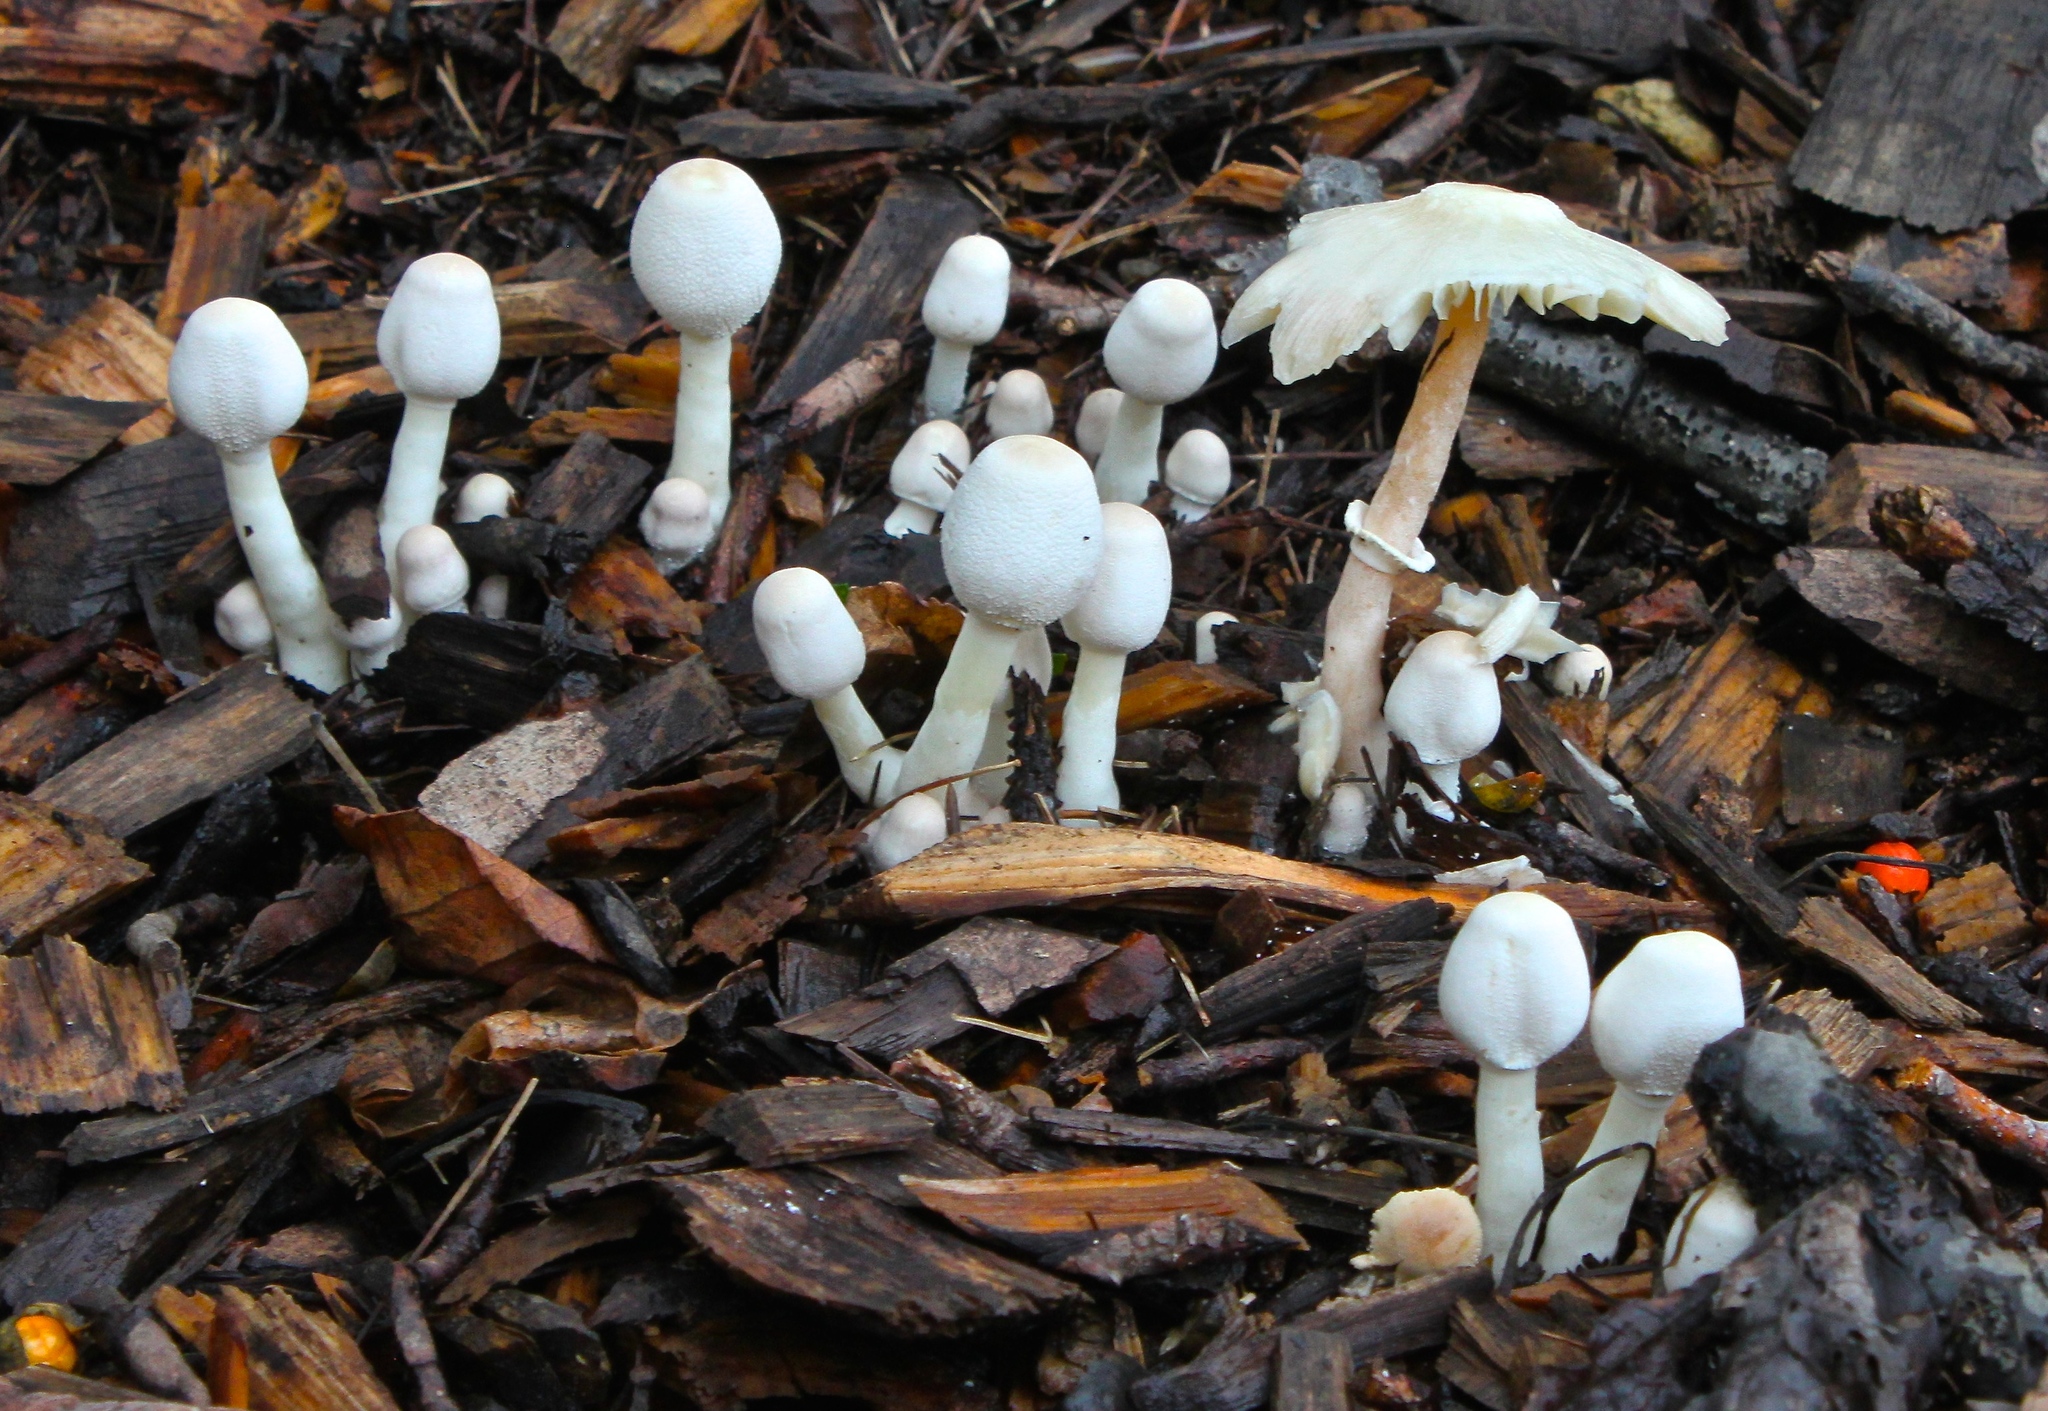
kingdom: Fungi
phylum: Basidiomycota
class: Agaricomycetes
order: Agaricales
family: Agaricaceae
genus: Leucocoprinus
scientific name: Leucocoprinus cepistipes
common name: Onion-stalk parasol
